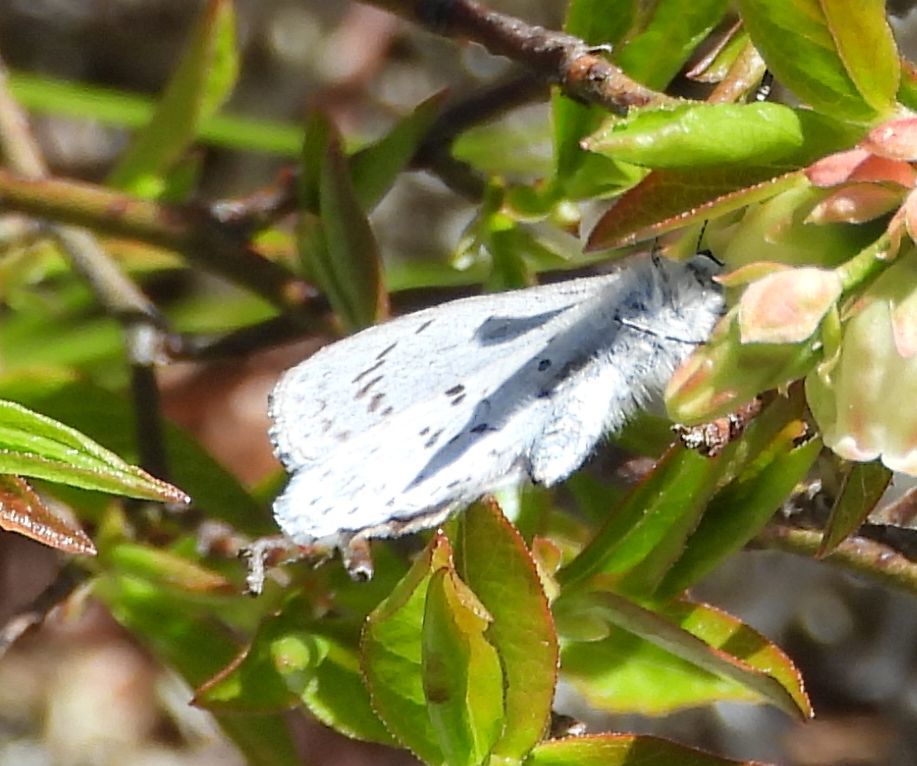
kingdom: Animalia
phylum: Arthropoda
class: Insecta
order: Lepidoptera
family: Lycaenidae
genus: Celastrina
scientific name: Celastrina lucia
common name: Lucia azure
